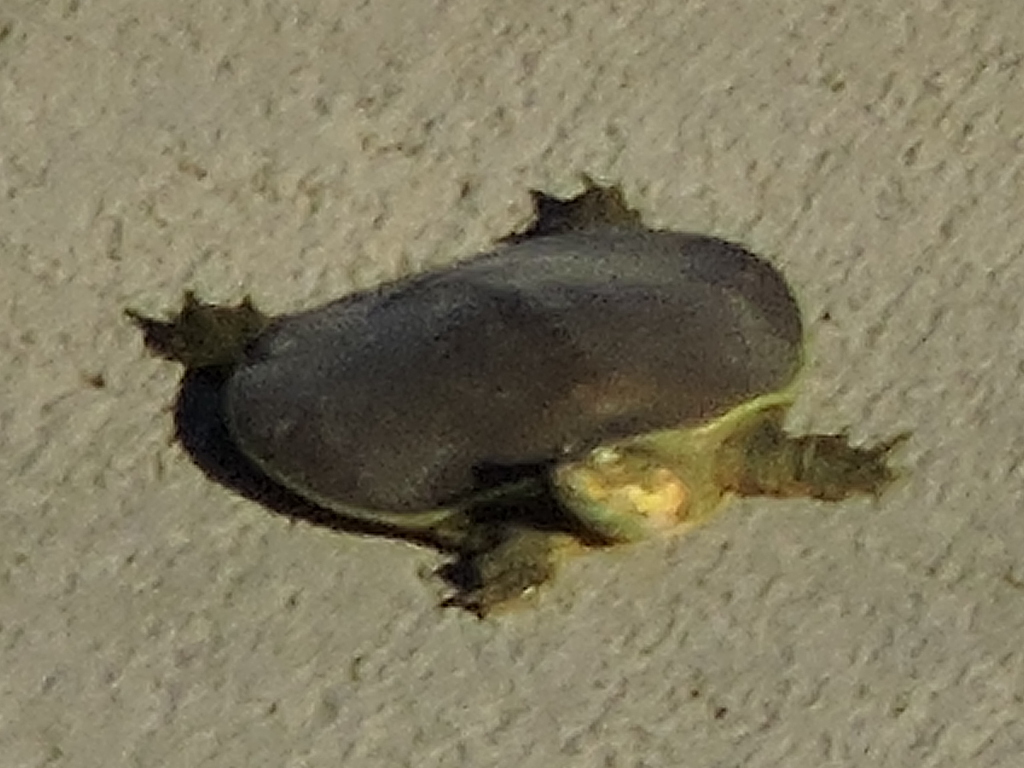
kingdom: Animalia
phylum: Chordata
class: Testudines
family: Trionychidae
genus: Apalone
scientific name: Apalone spinifera
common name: Spiny softshell turtle
